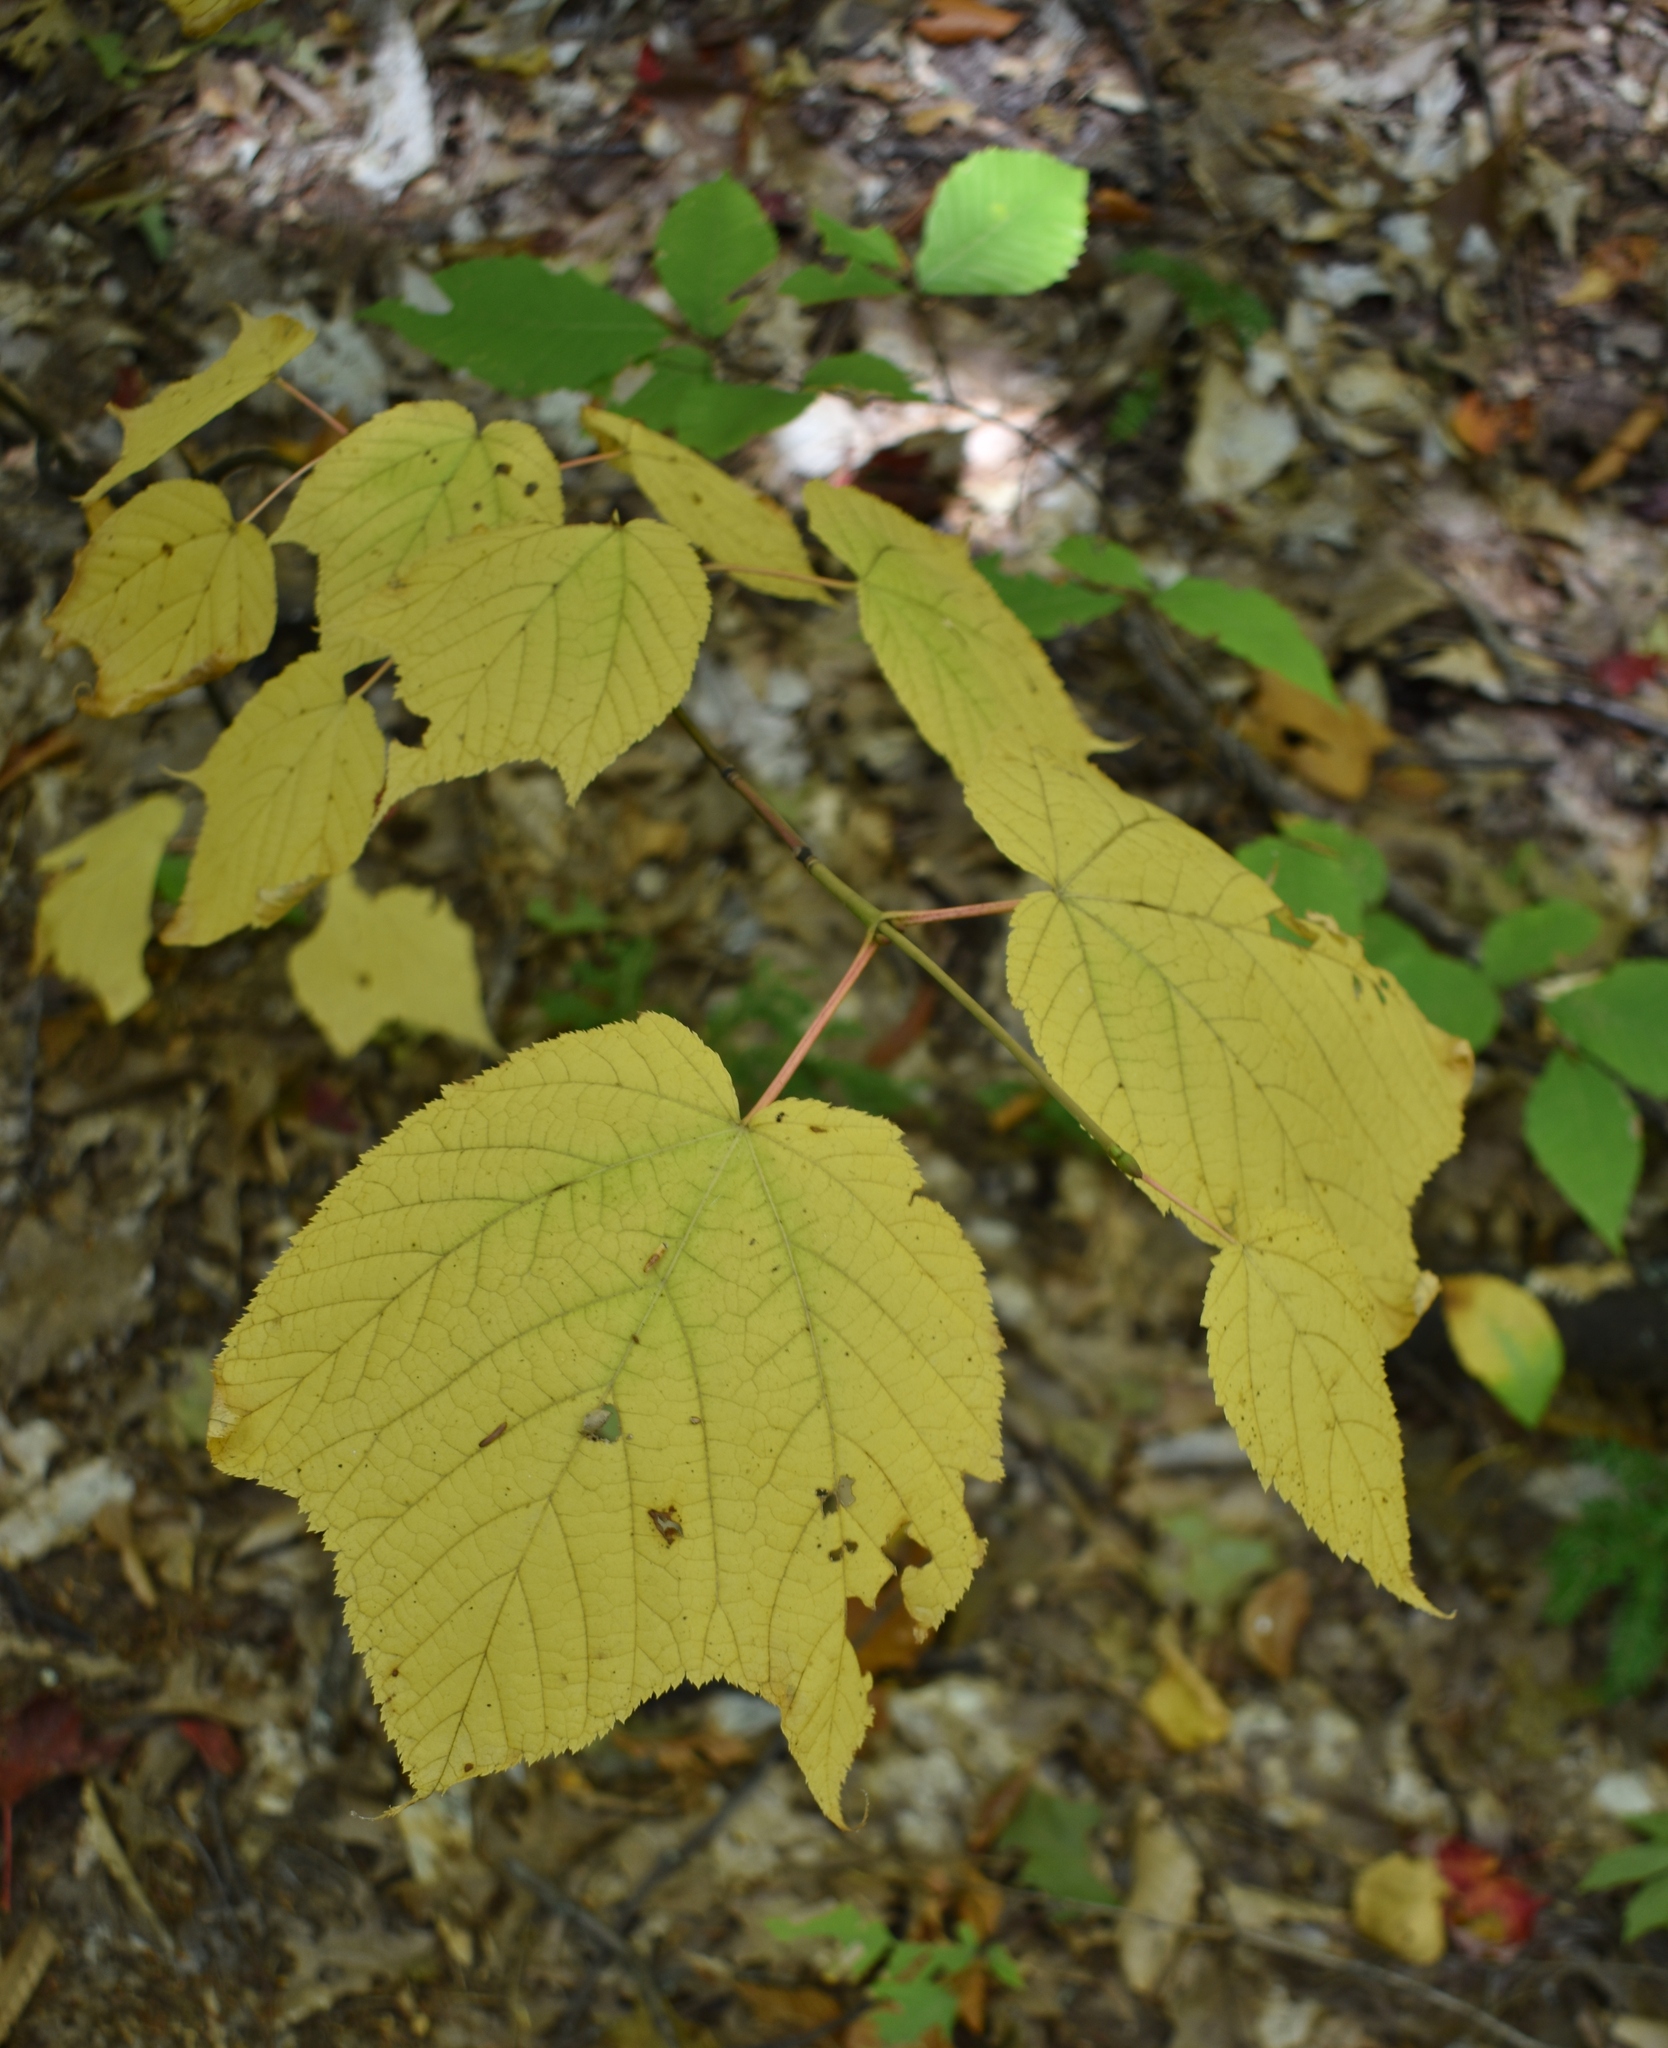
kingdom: Plantae
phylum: Tracheophyta
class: Magnoliopsida
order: Sapindales
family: Sapindaceae
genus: Acer
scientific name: Acer pensylvanicum
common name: Moosewood
